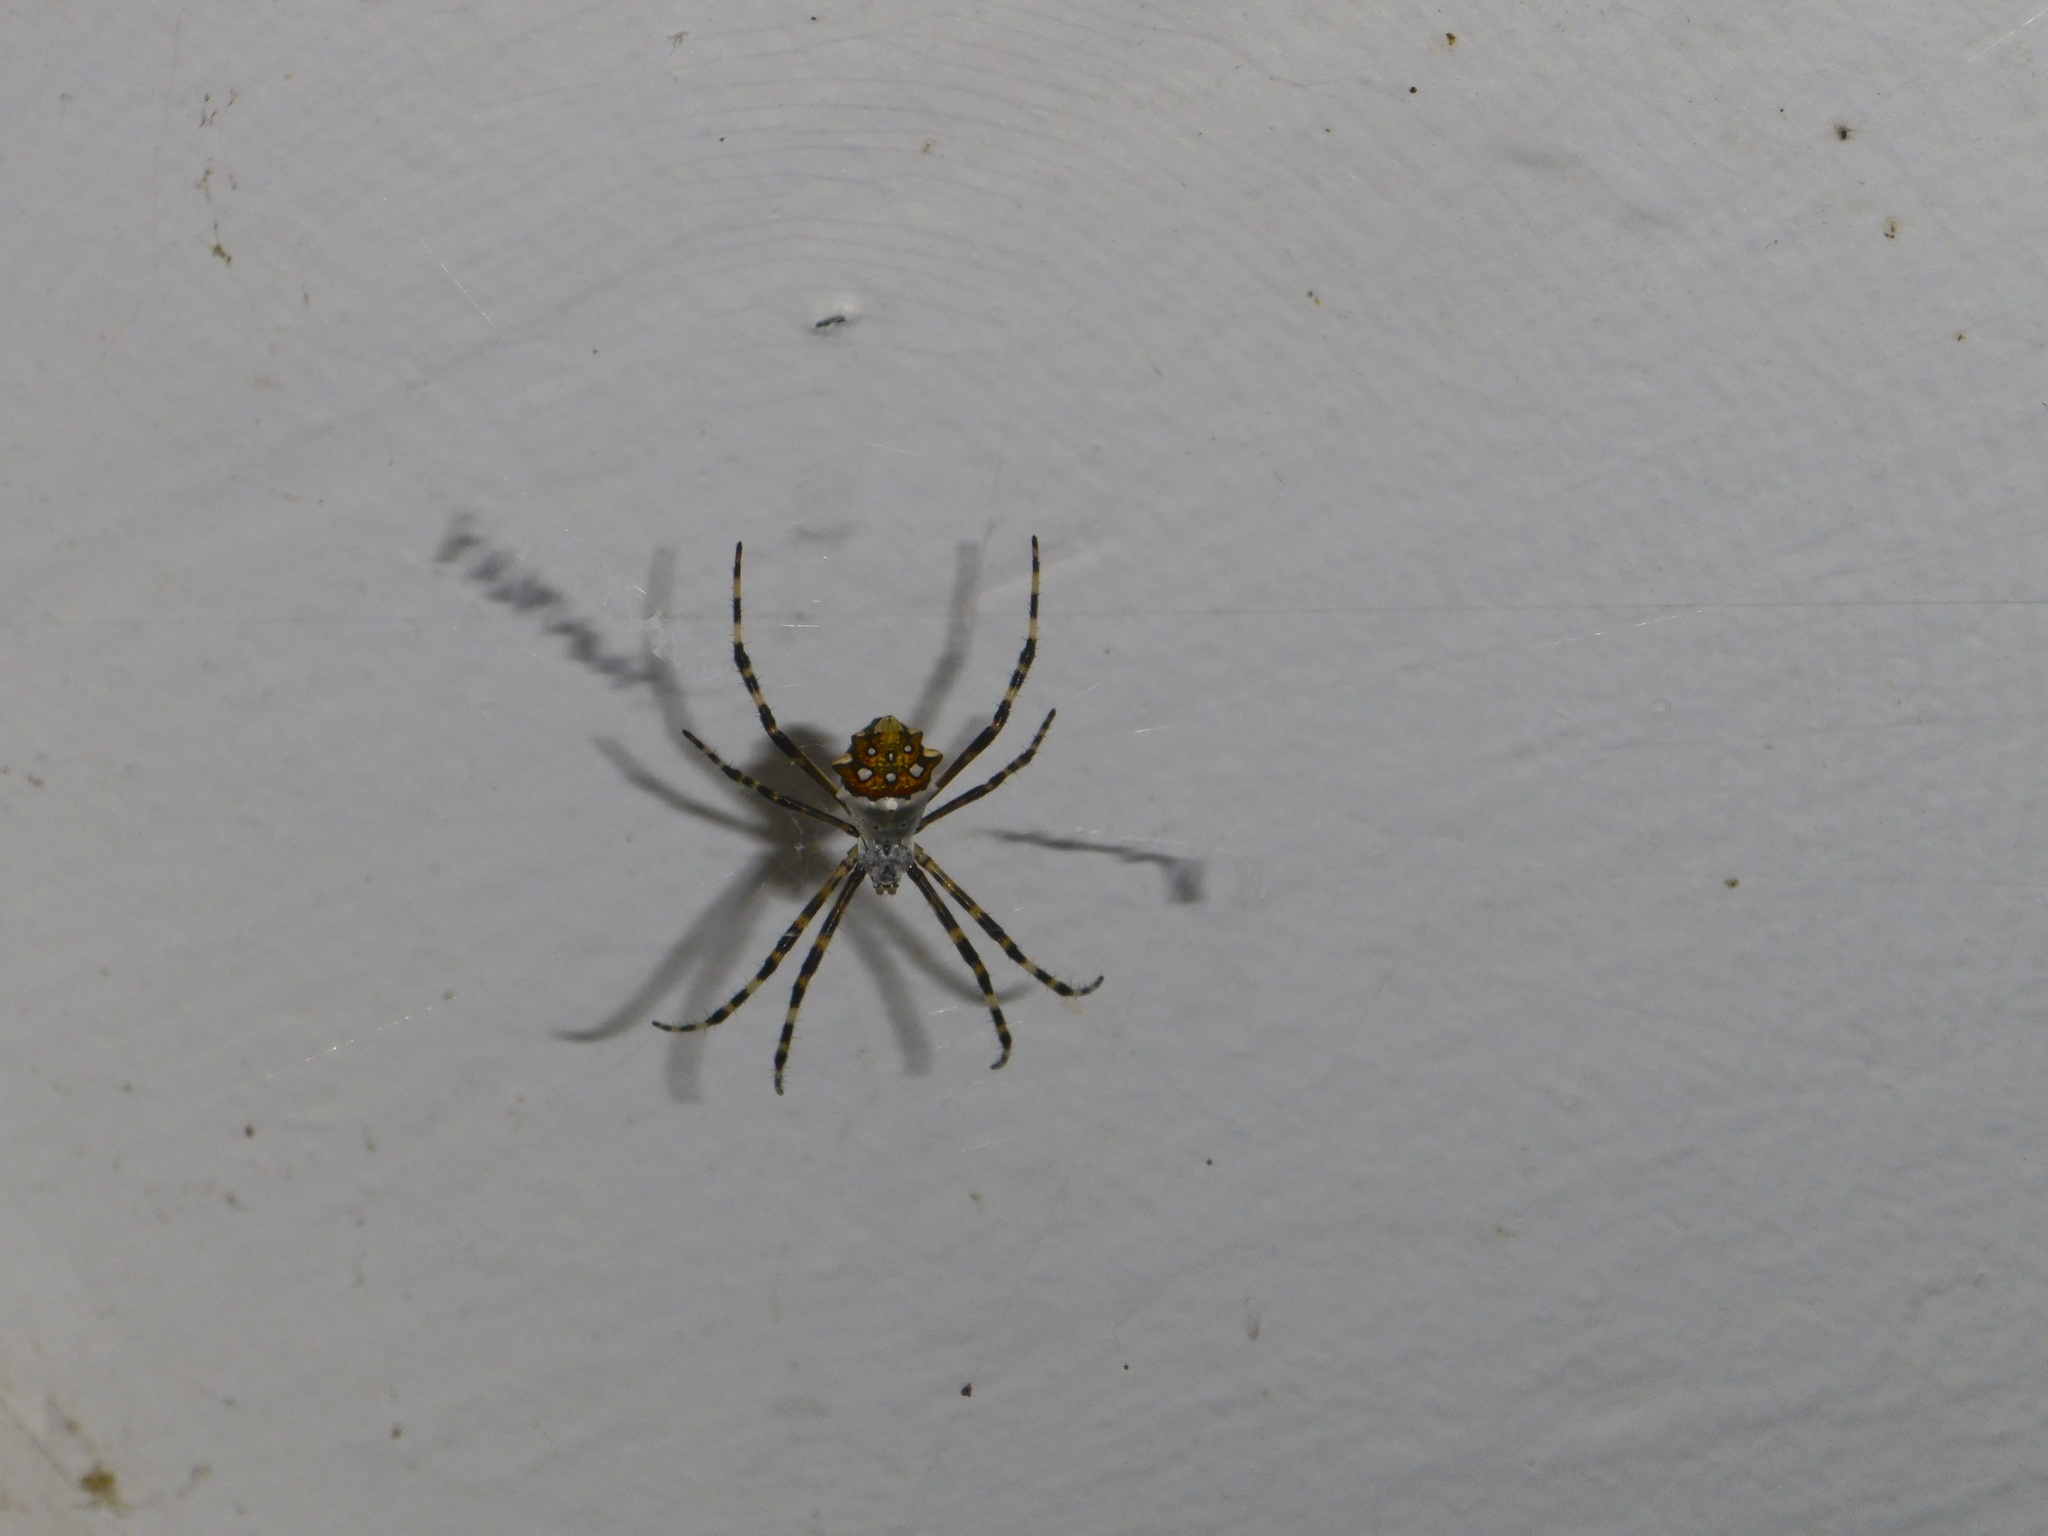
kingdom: Animalia
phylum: Arthropoda
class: Arachnida
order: Araneae
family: Araneidae
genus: Argiope
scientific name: Argiope argentata
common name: Orb weavers
